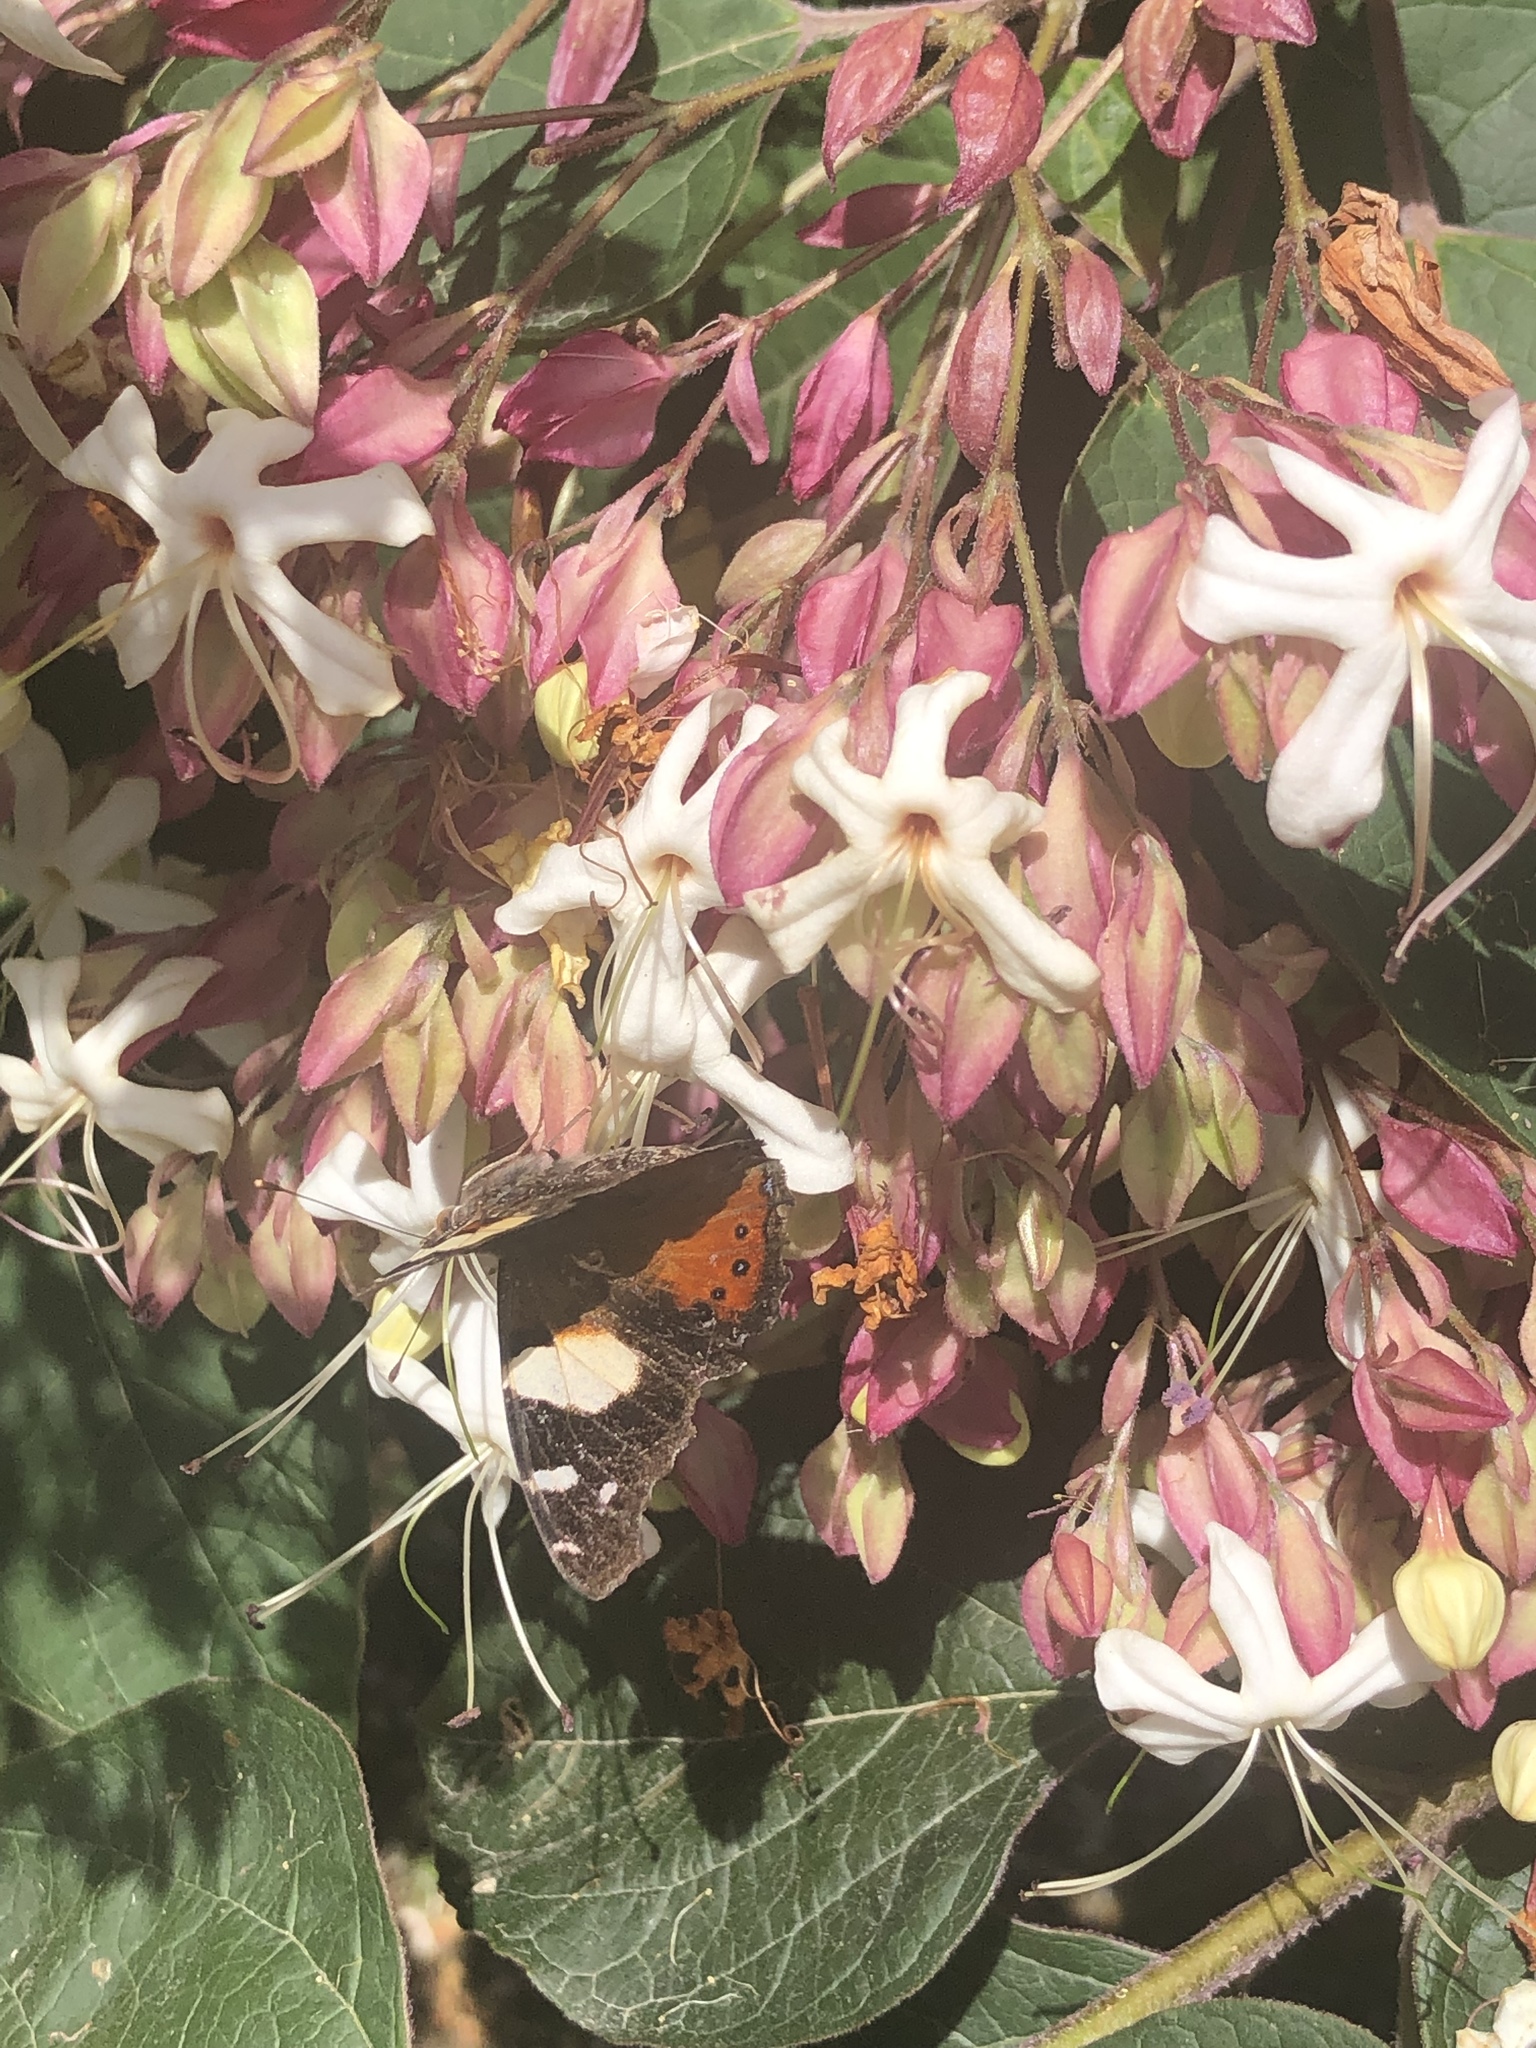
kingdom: Animalia
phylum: Arthropoda
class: Insecta
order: Lepidoptera
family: Nymphalidae
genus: Vanessa
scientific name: Vanessa itea
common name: Yellow admiral
